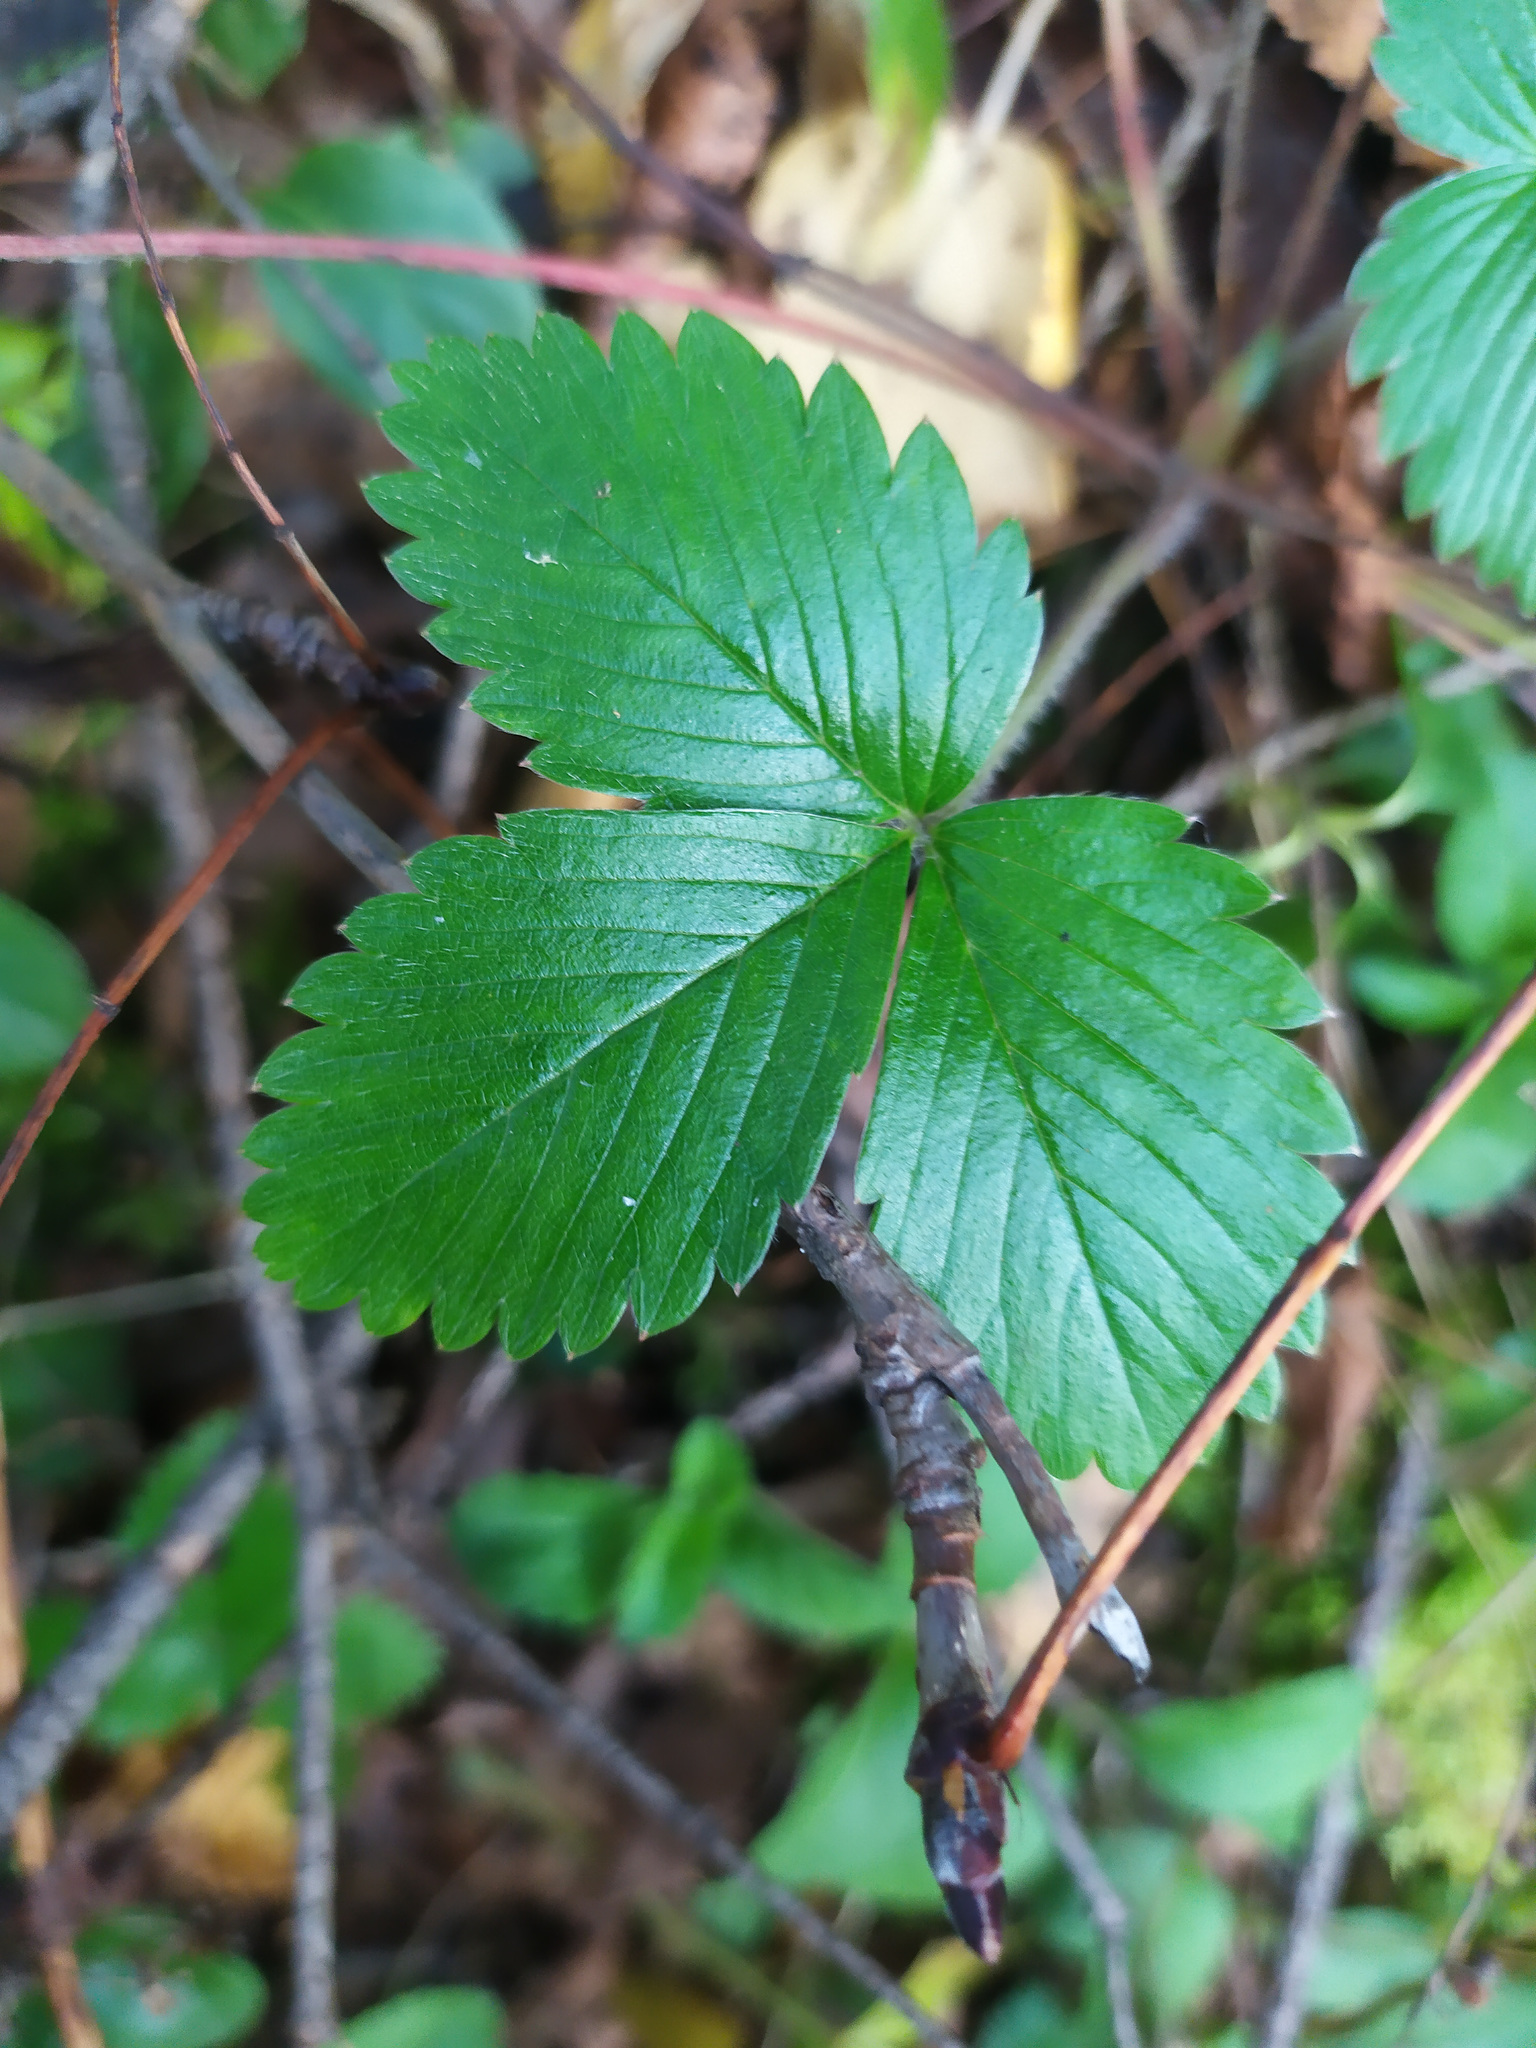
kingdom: Plantae
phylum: Tracheophyta
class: Magnoliopsida
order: Rosales
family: Rosaceae
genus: Fragaria
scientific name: Fragaria vesca
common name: Wild strawberry
